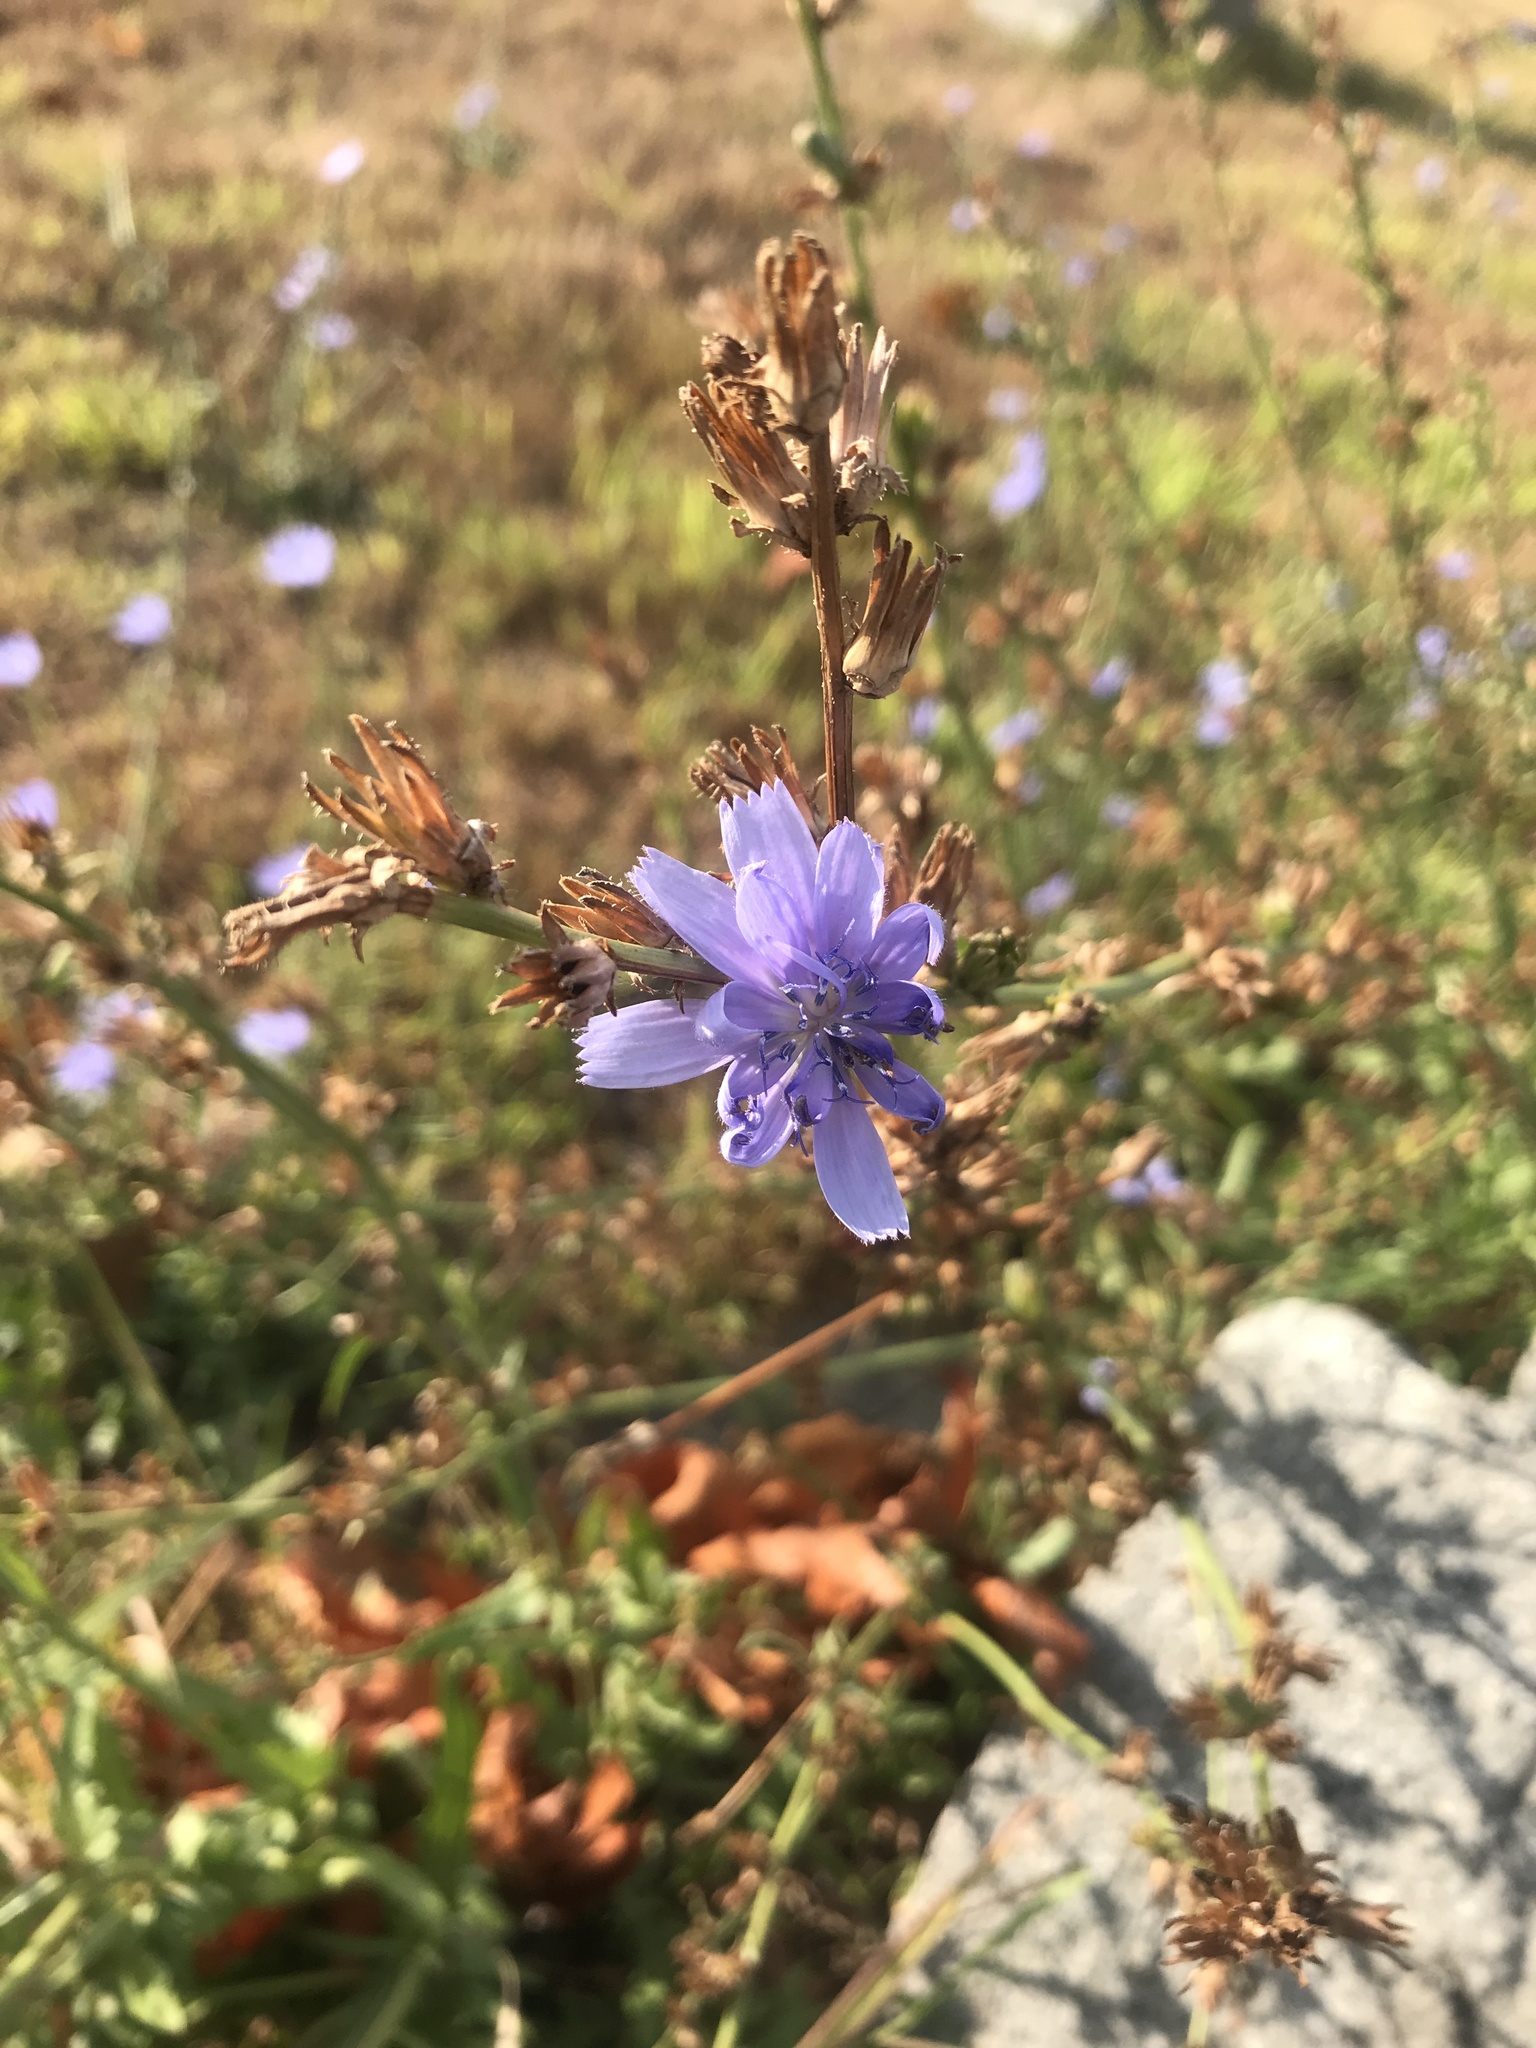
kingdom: Plantae
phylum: Tracheophyta
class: Magnoliopsida
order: Asterales
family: Asteraceae
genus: Cichorium
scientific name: Cichorium intybus
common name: Chicory
